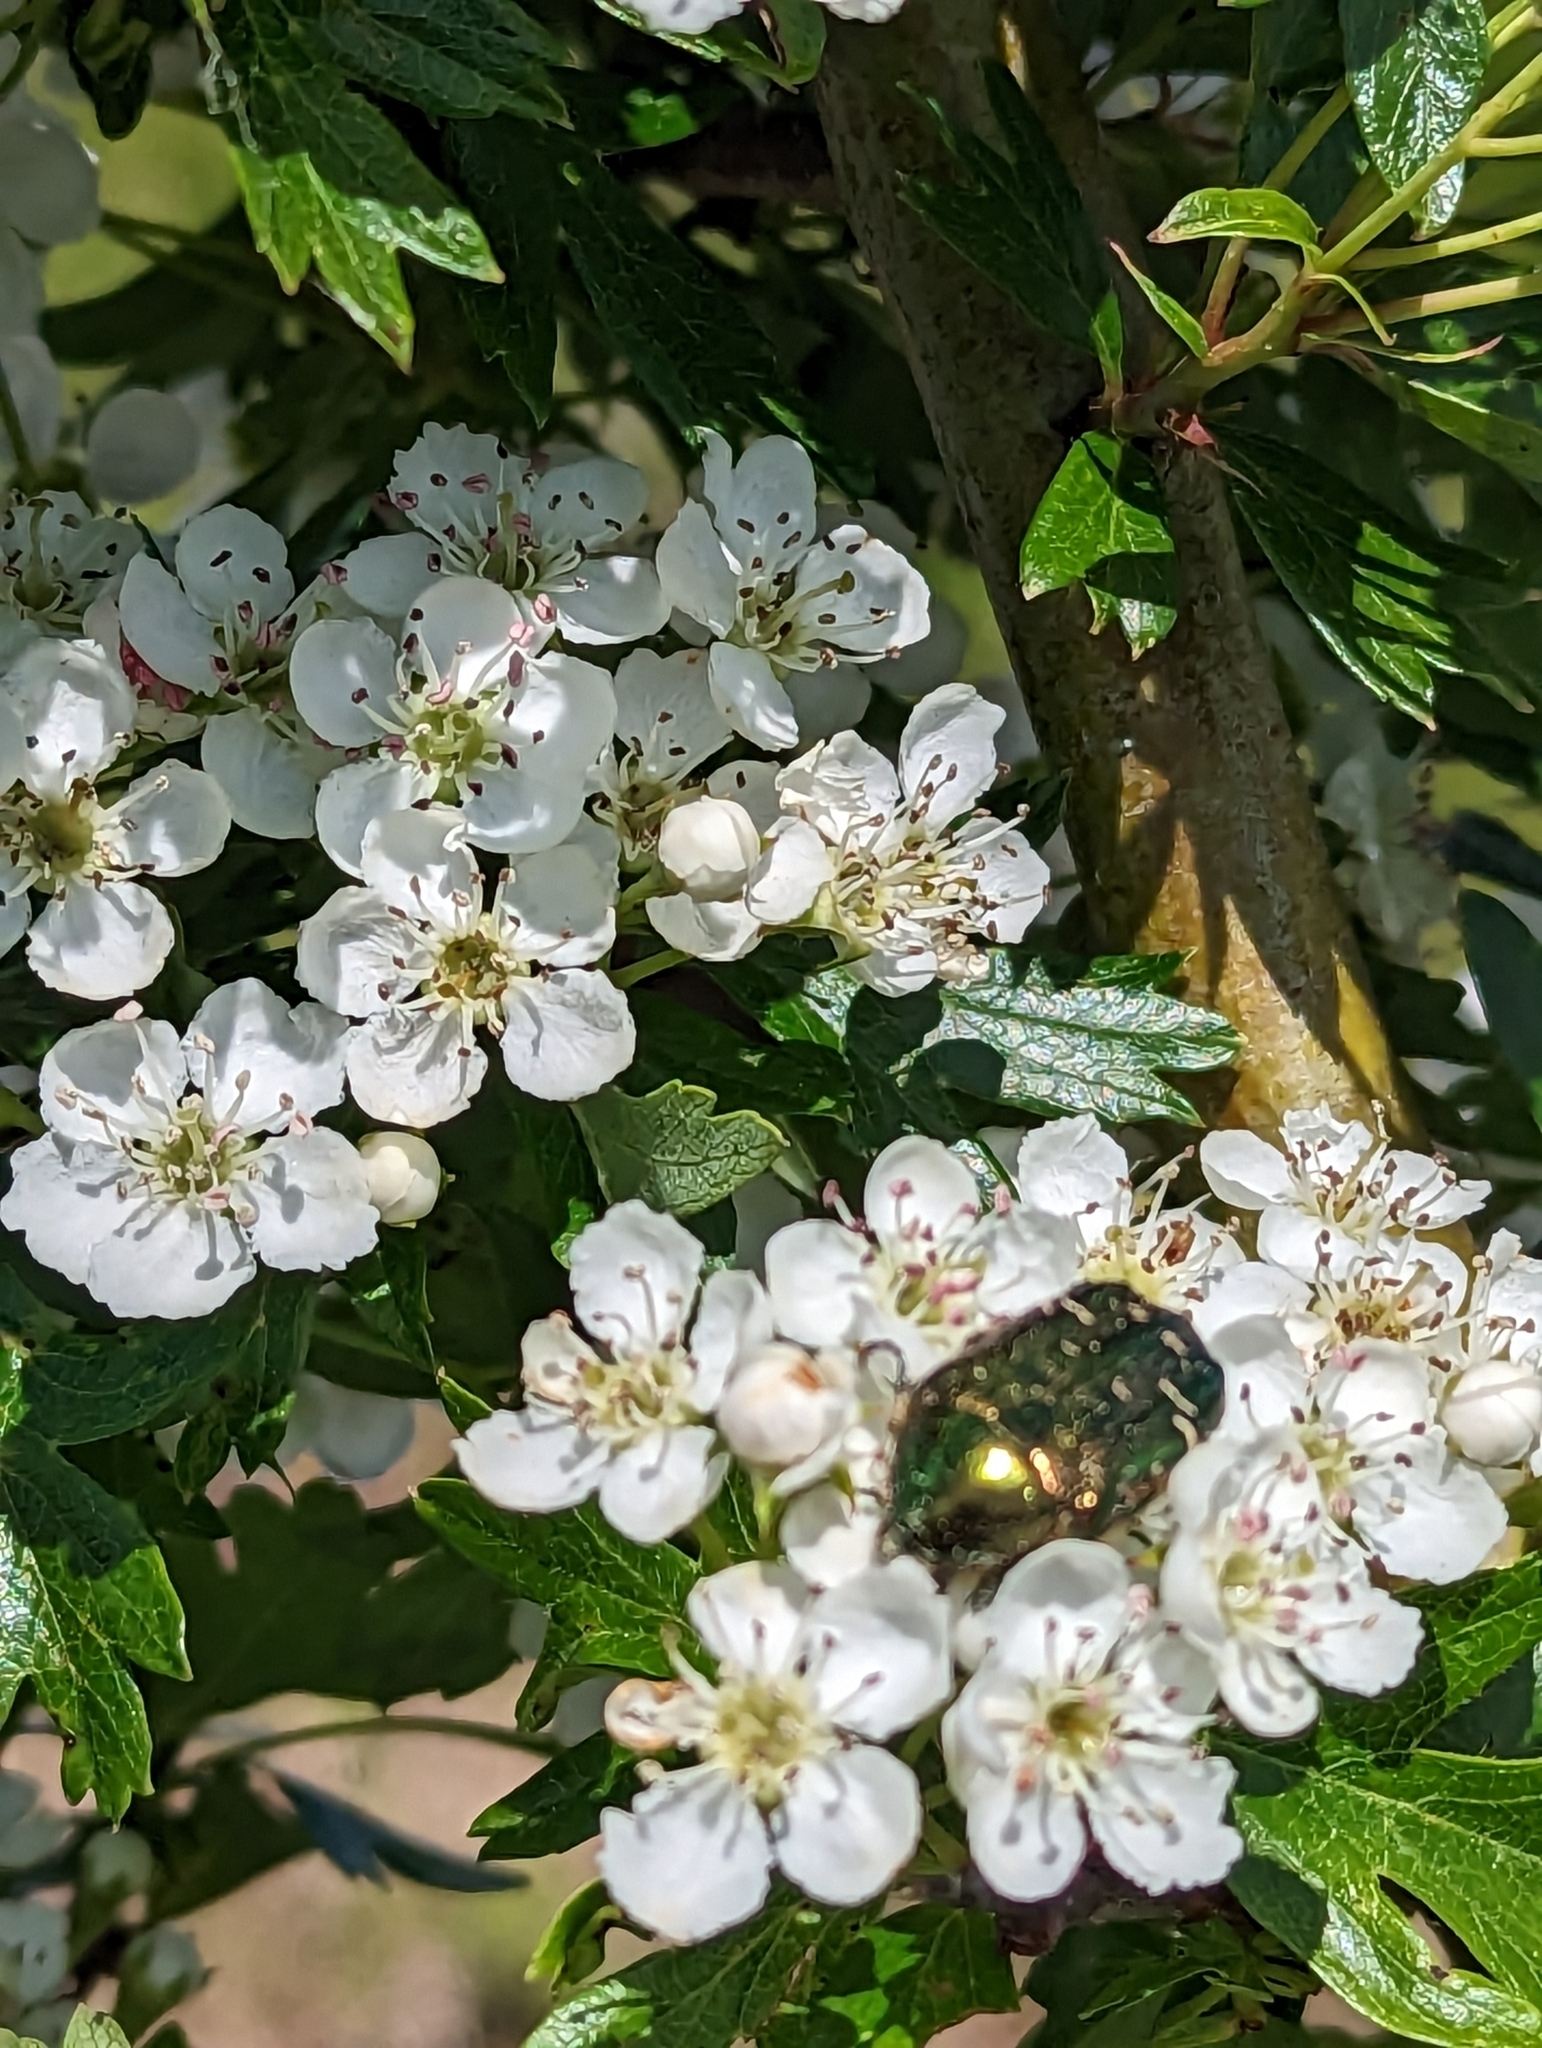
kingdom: Animalia
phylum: Arthropoda
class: Insecta
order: Coleoptera
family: Scarabaeidae
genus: Cetonia
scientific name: Cetonia aurata
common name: Rose chafer
